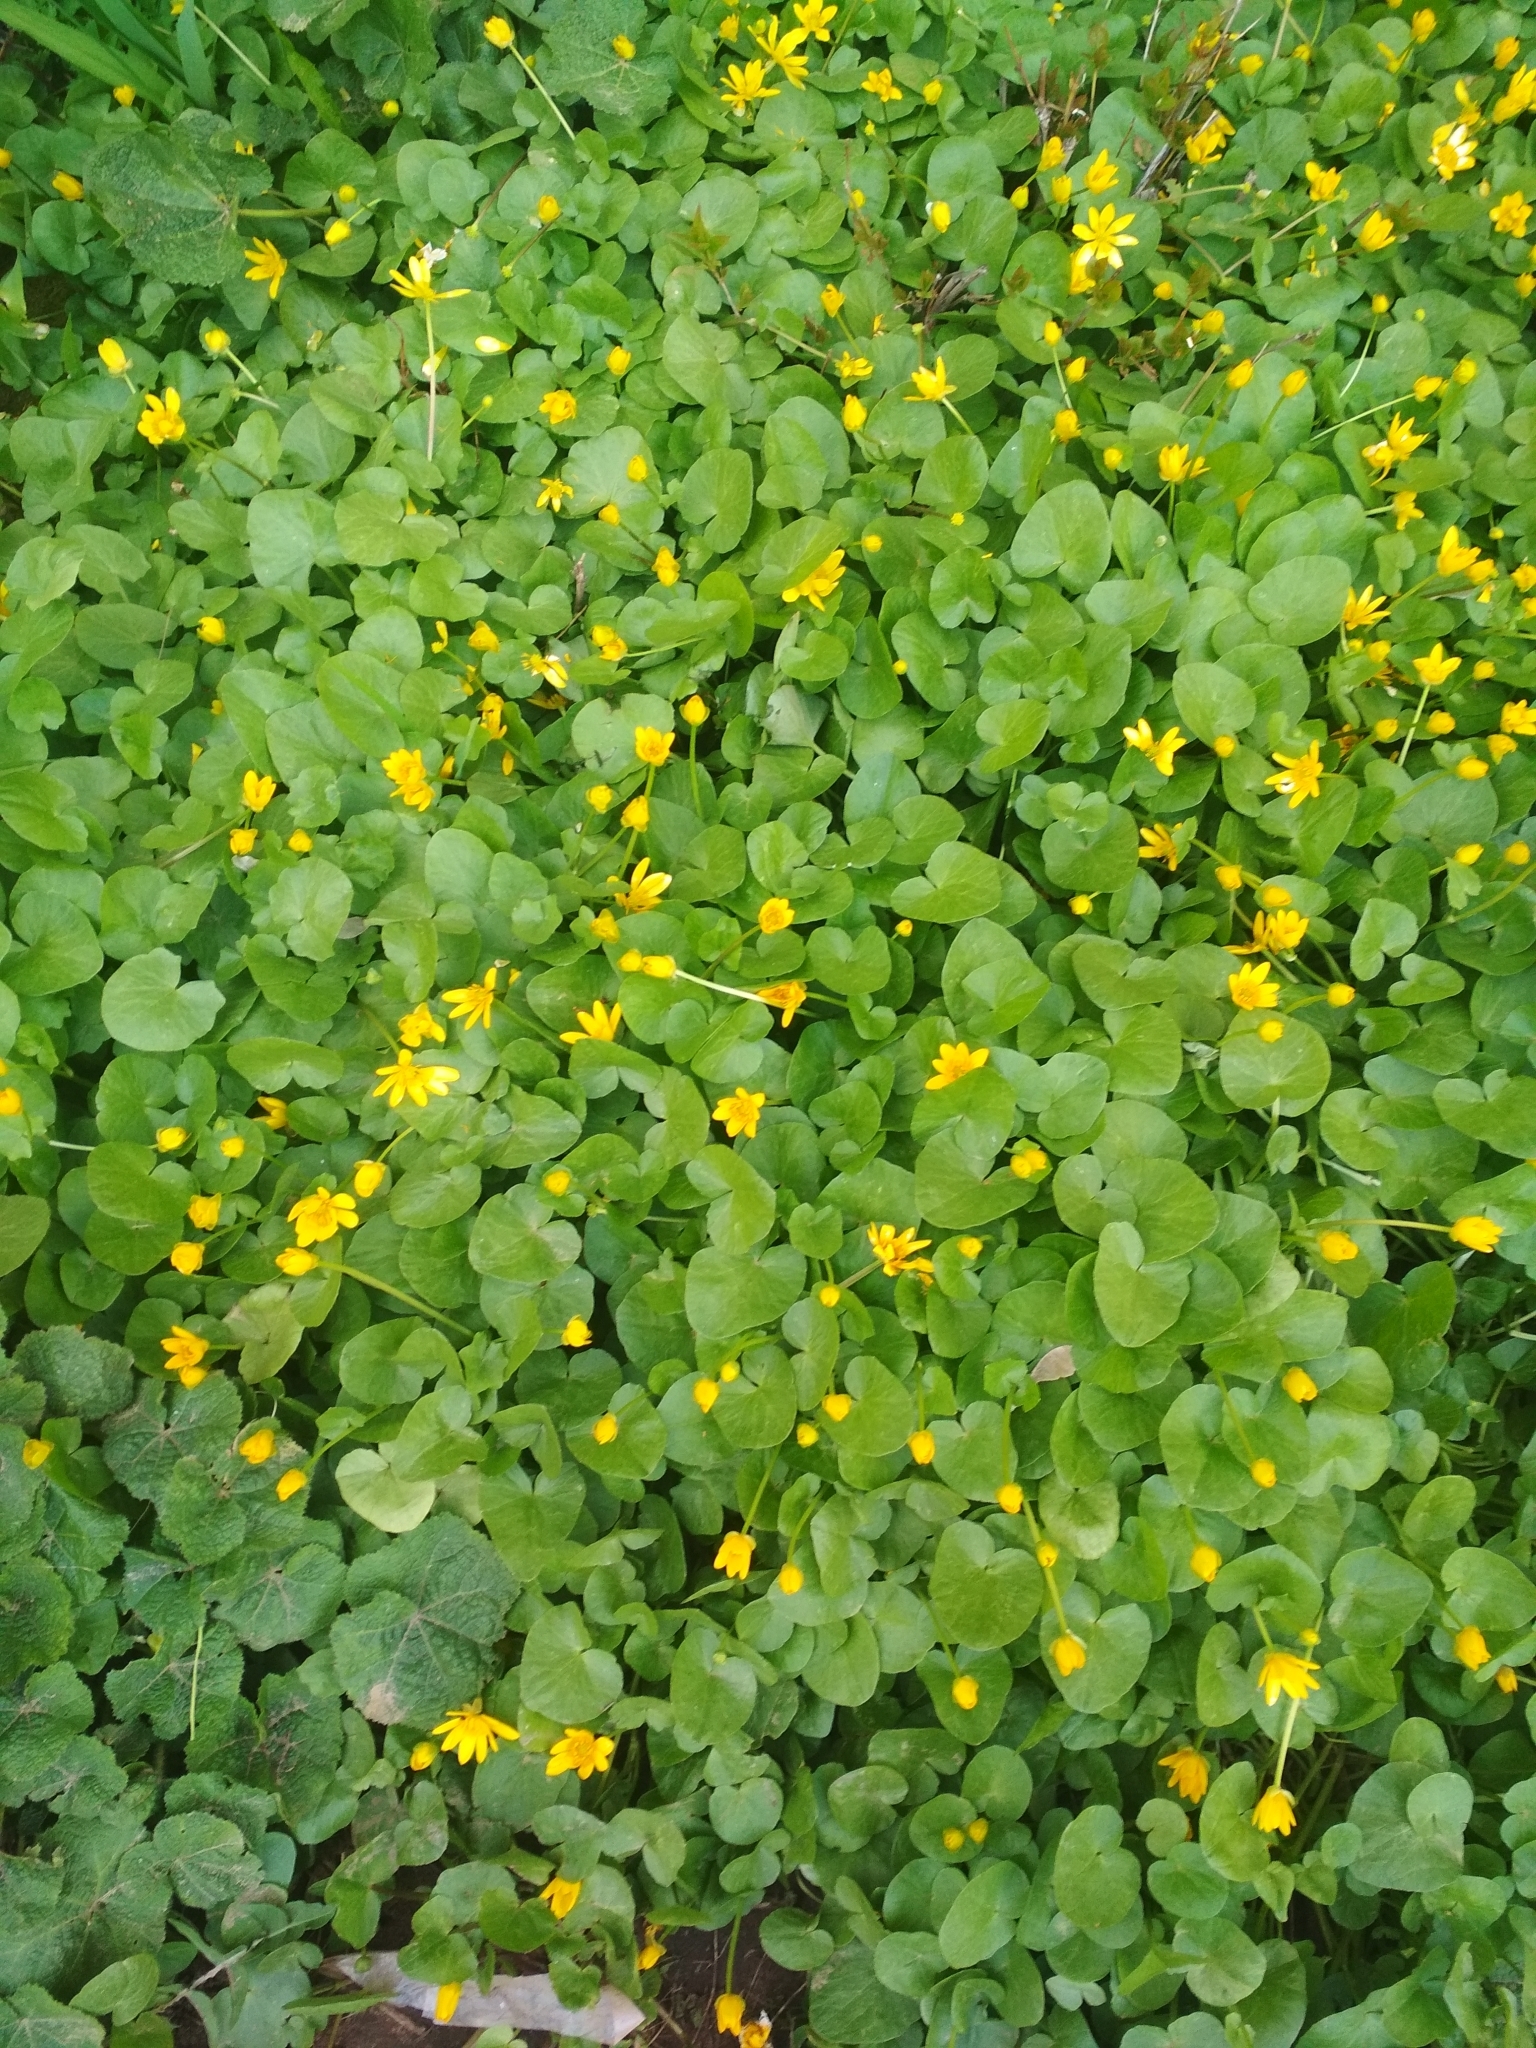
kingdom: Plantae
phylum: Tracheophyta
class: Magnoliopsida
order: Ranunculales
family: Ranunculaceae
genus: Ficaria
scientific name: Ficaria verna
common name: Lesser celandine
